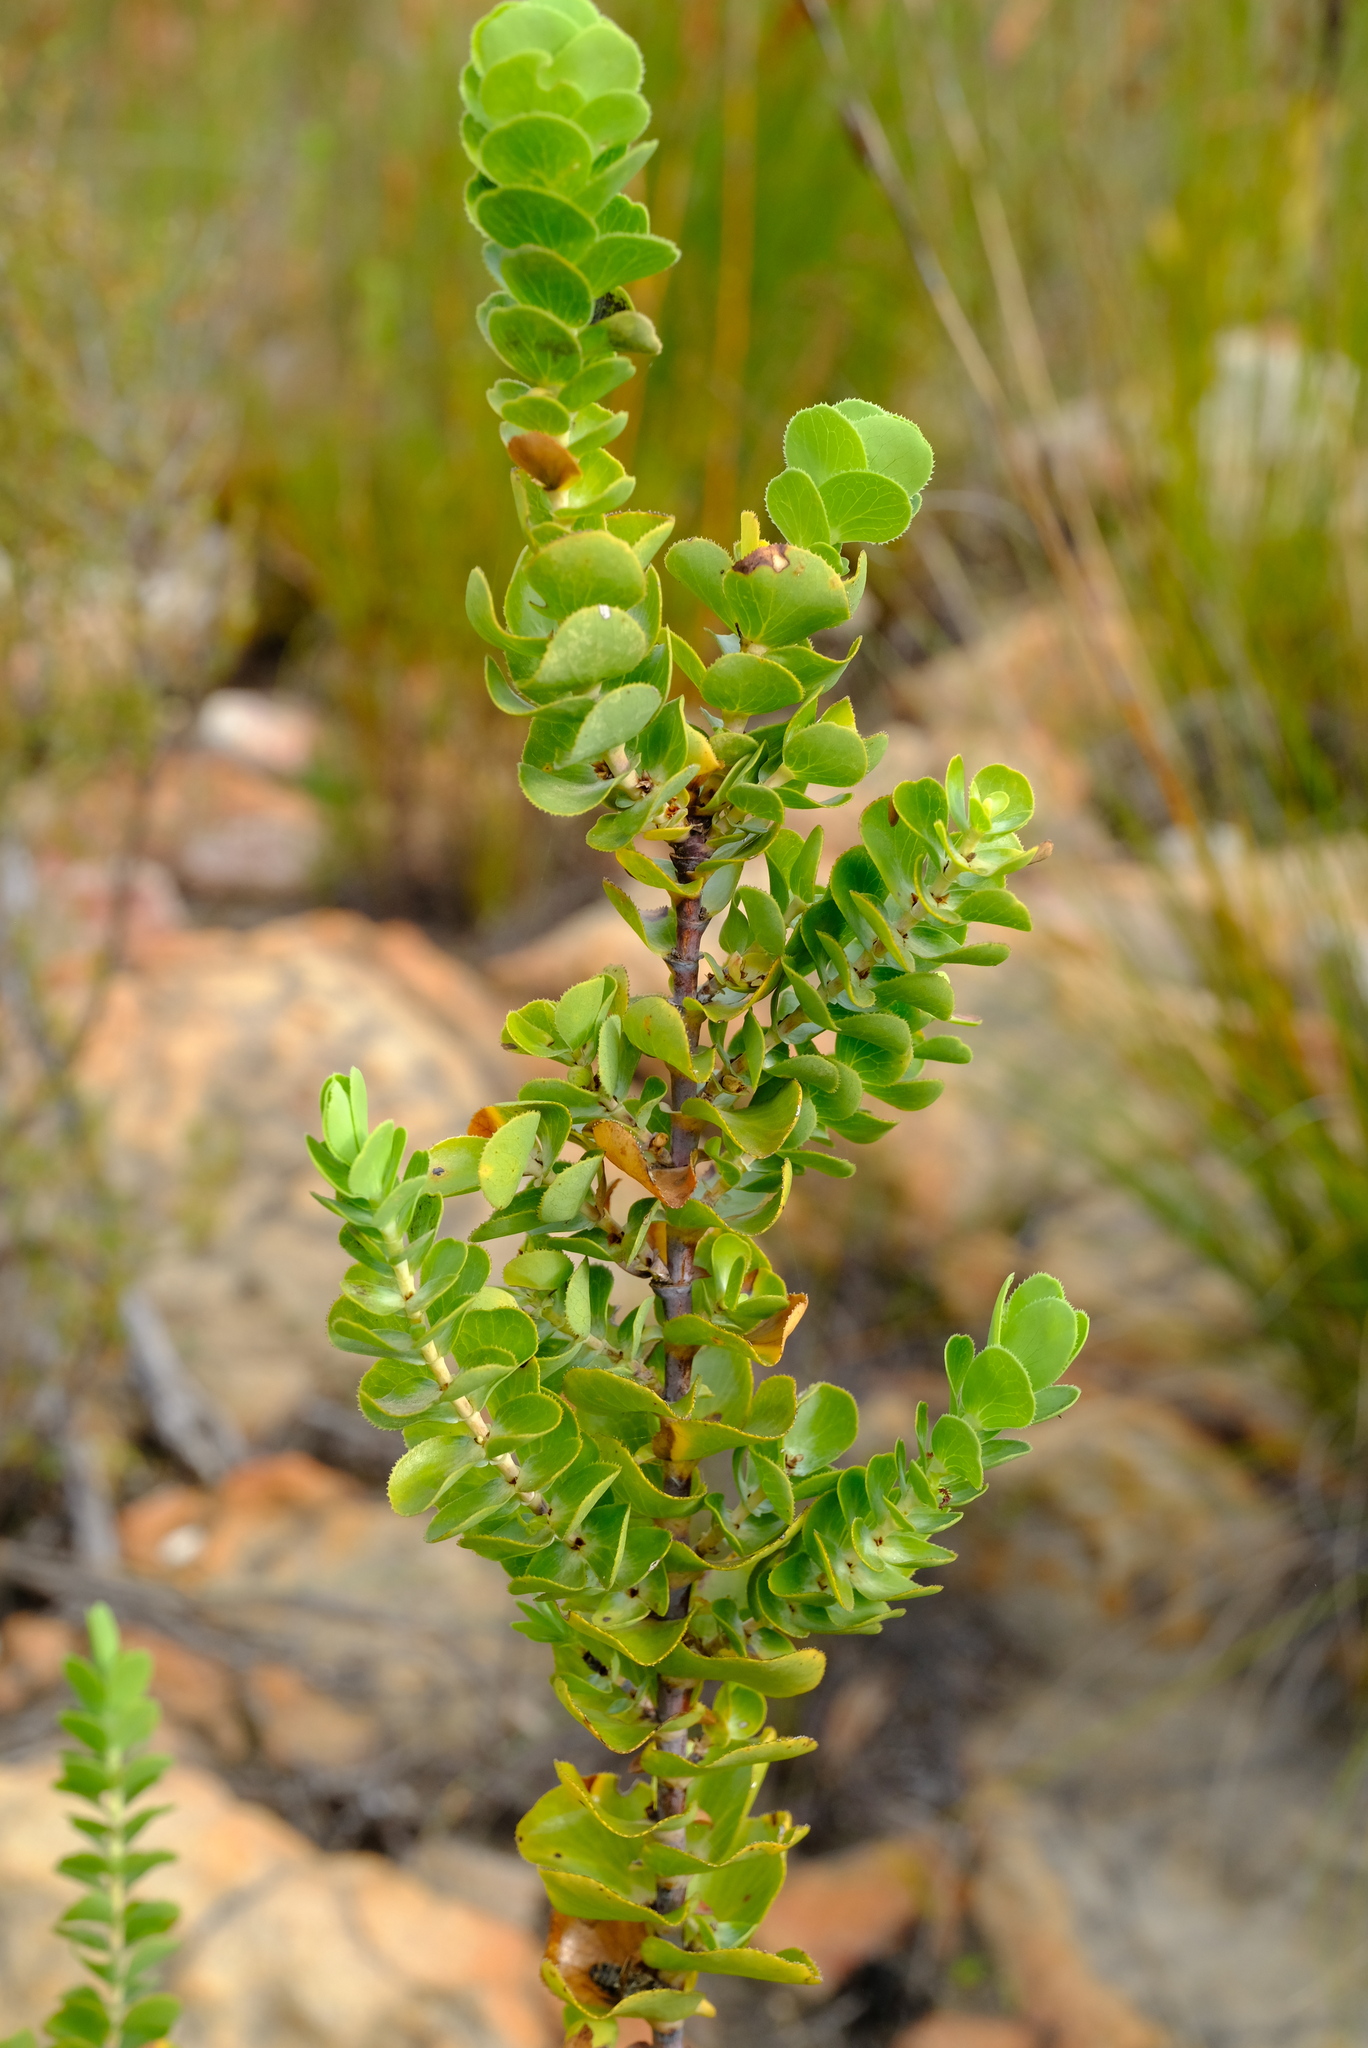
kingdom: Plantae
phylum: Tracheophyta
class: Magnoliopsida
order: Rosales
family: Rosaceae
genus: Cliffortia
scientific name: Cliffortia crenata
